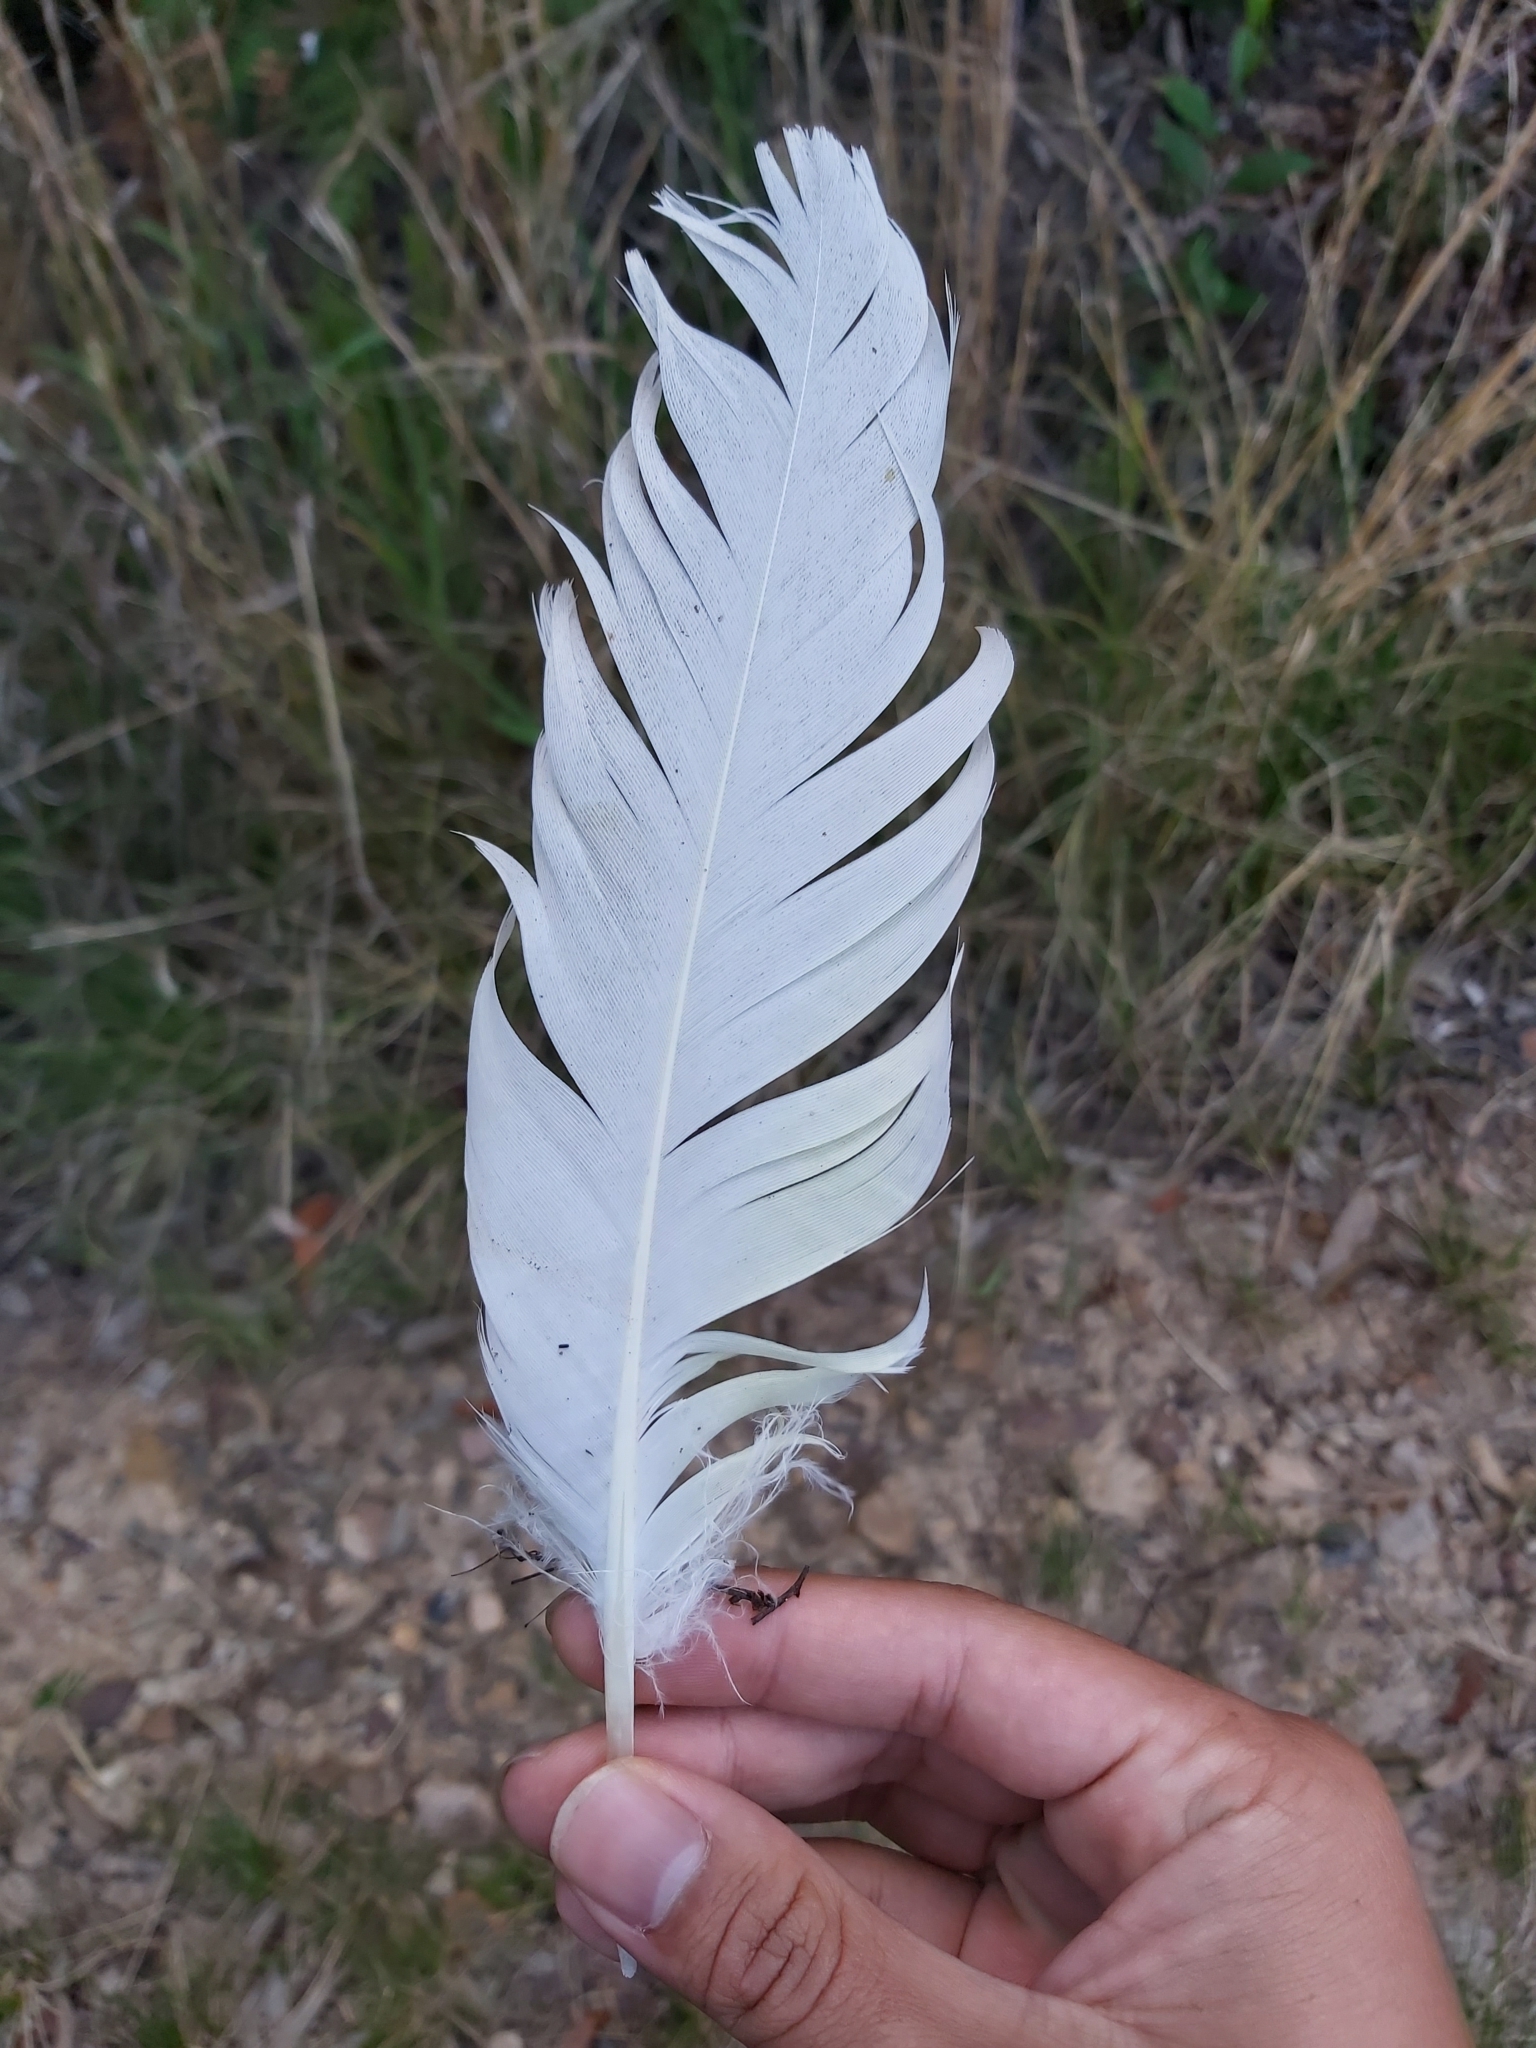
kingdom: Animalia
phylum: Chordata
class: Aves
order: Psittaciformes
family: Psittacidae
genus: Cacatua
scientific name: Cacatua galerita
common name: Sulphur-crested cockatoo
